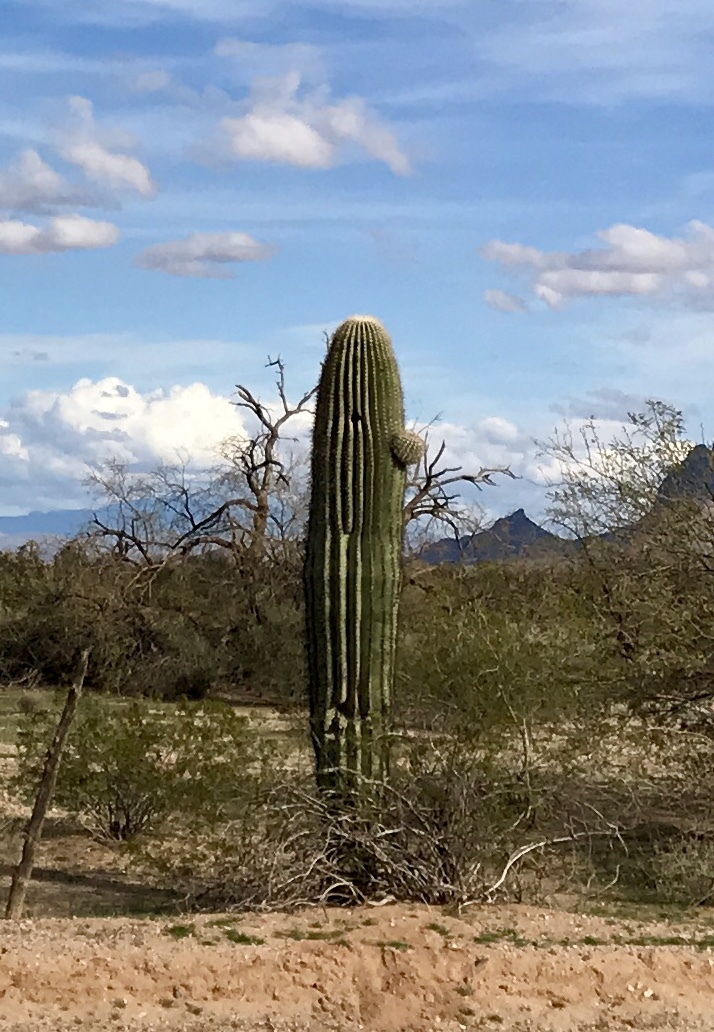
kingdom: Plantae
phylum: Tracheophyta
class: Magnoliopsida
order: Caryophyllales
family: Cactaceae
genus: Carnegiea
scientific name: Carnegiea gigantea
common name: Saguaro
